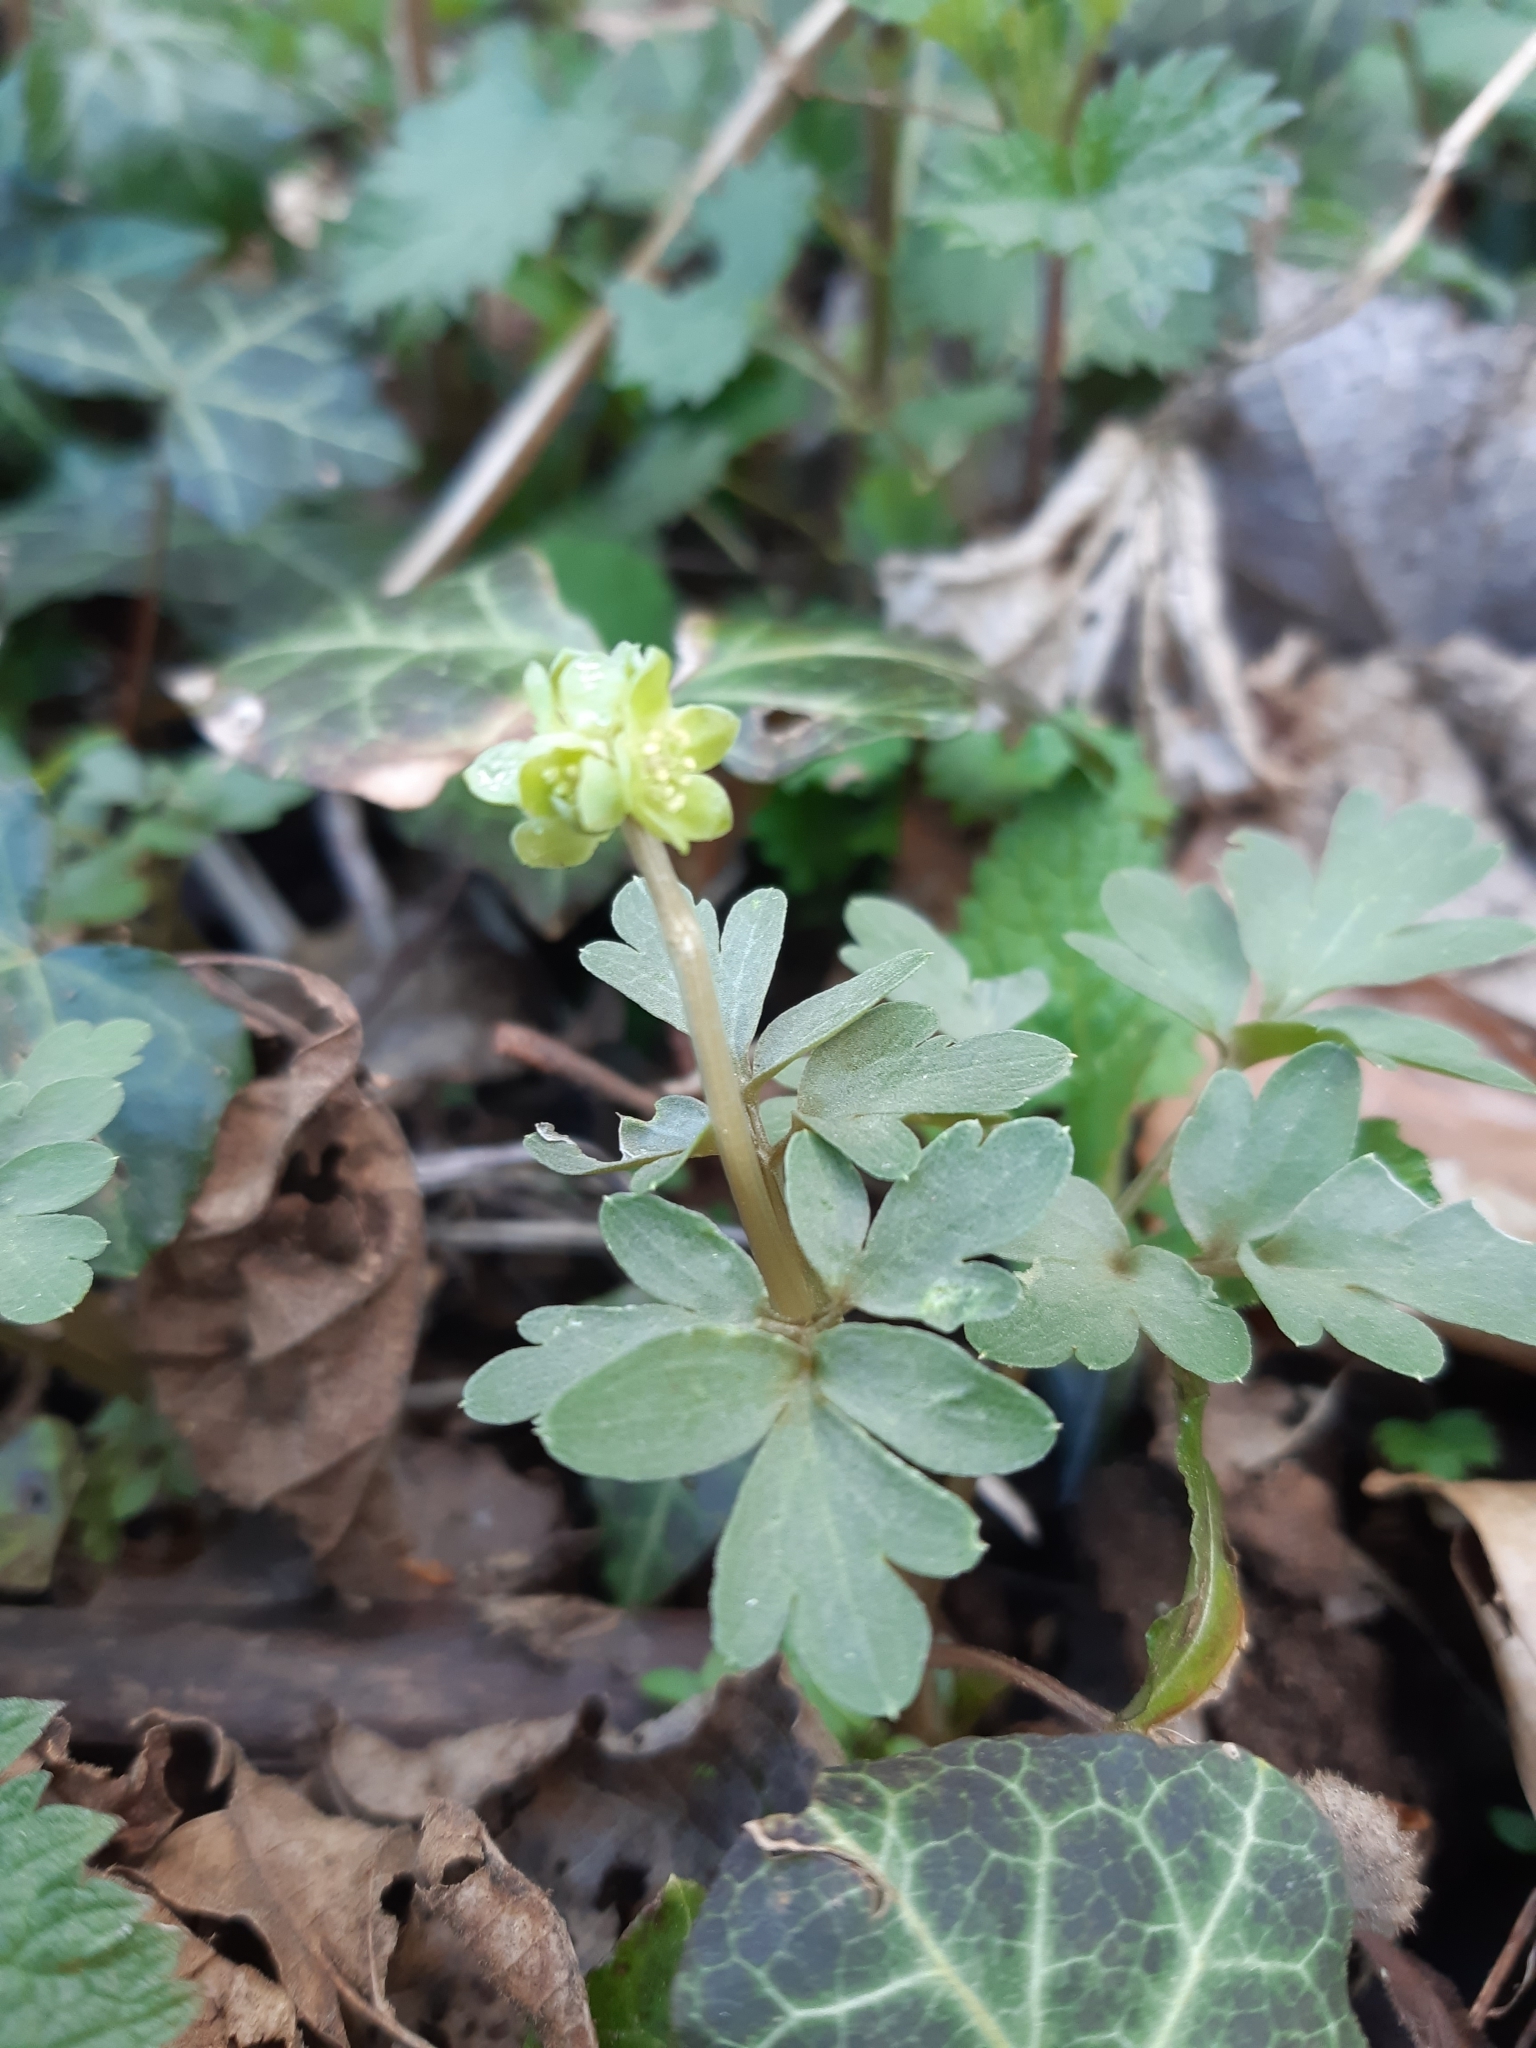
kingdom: Plantae
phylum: Tracheophyta
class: Magnoliopsida
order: Dipsacales
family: Viburnaceae
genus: Adoxa
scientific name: Adoxa moschatellina
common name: Moschatel
